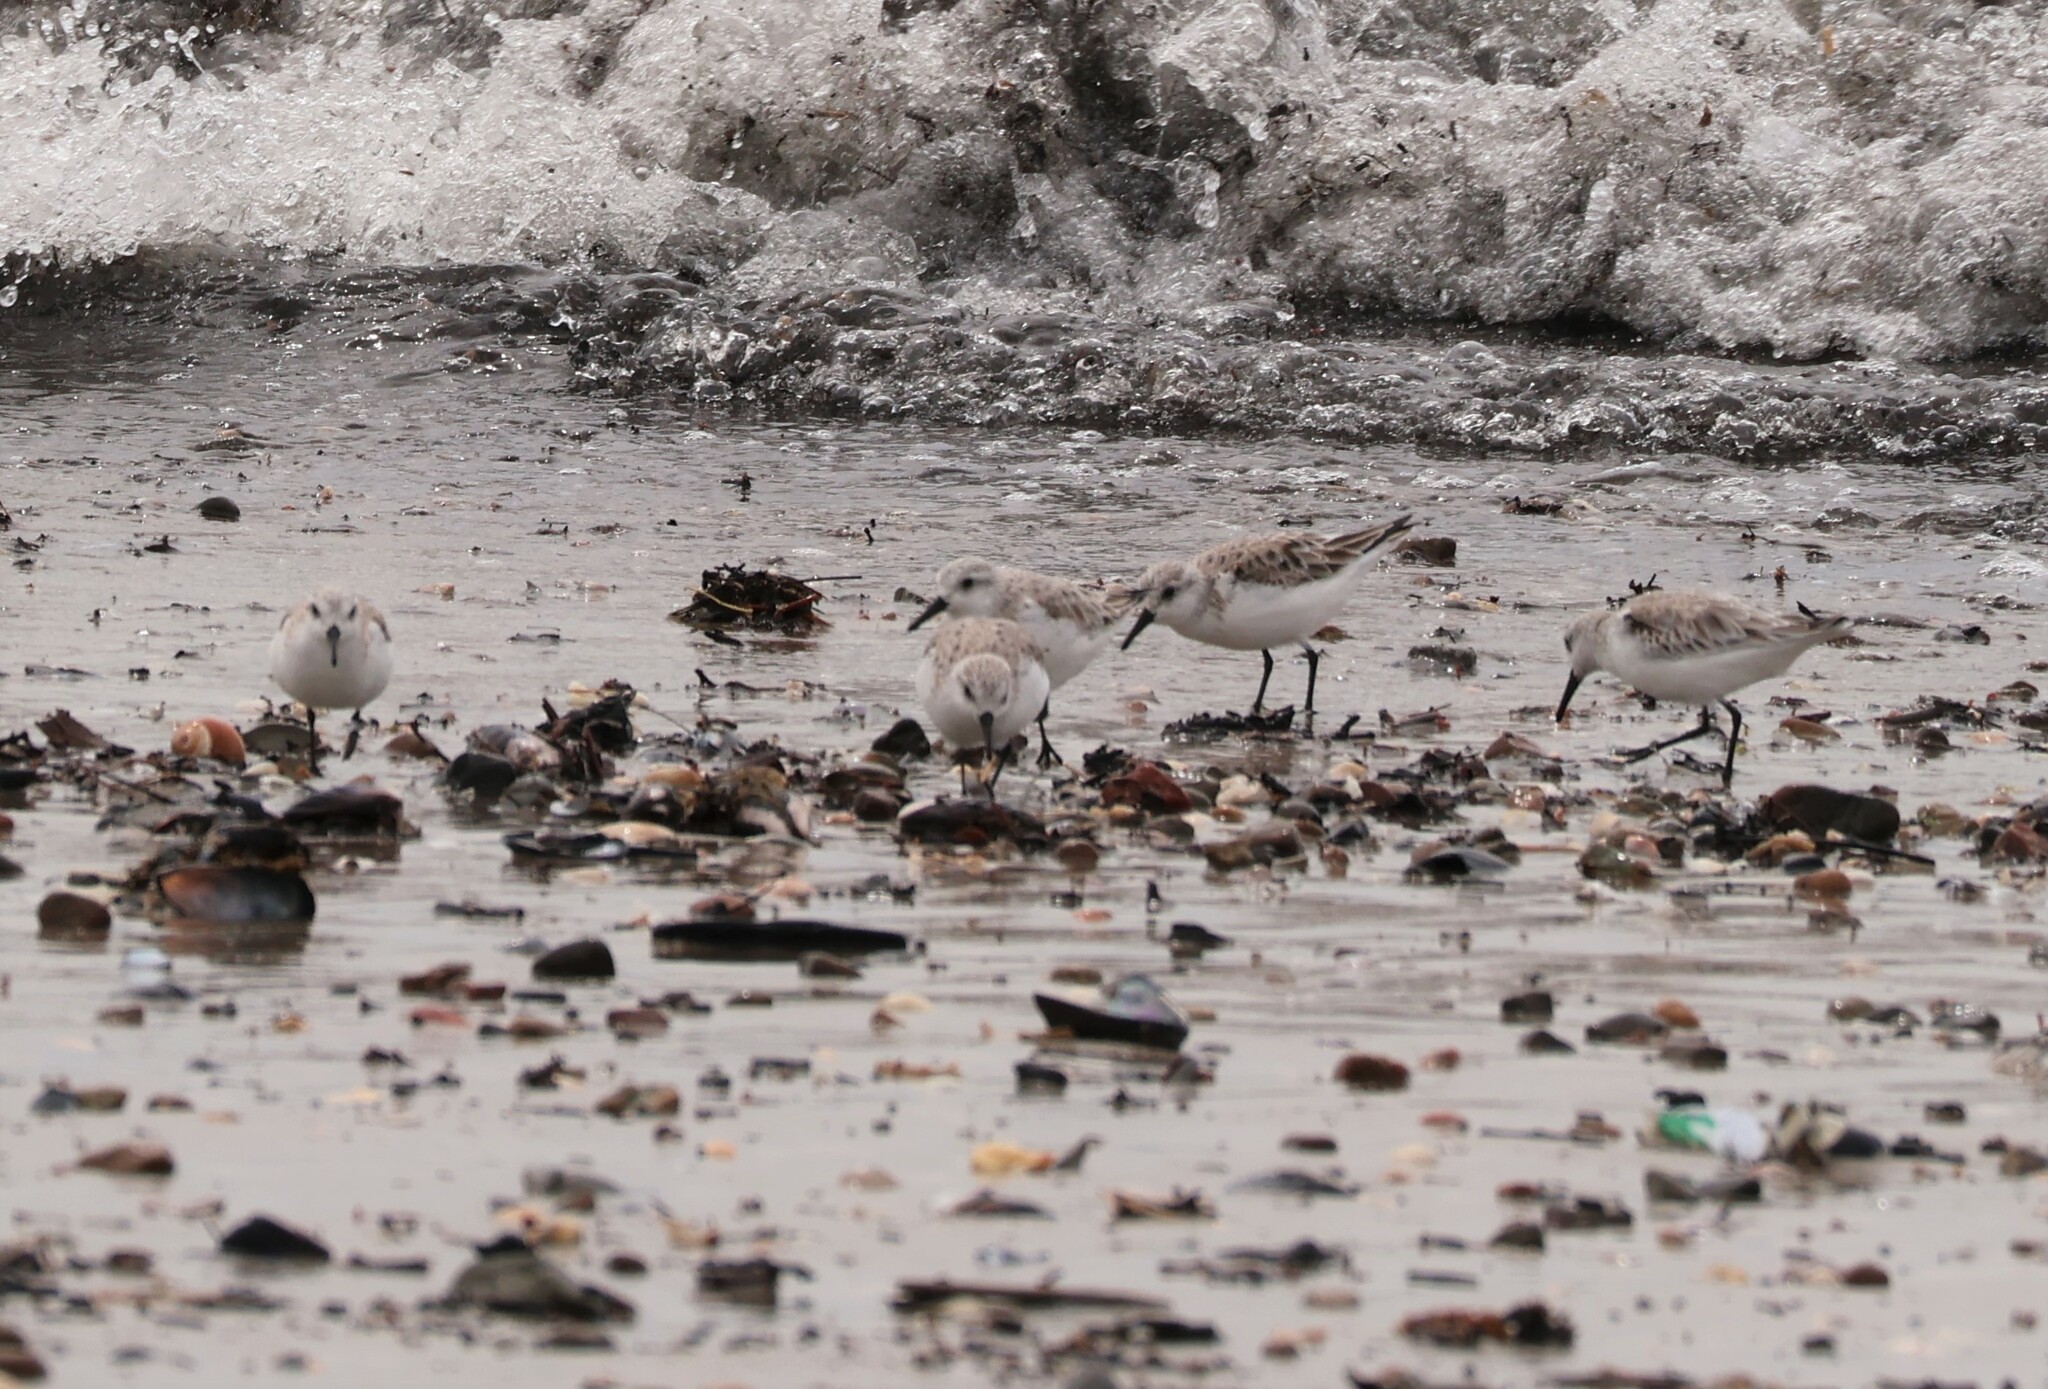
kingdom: Animalia
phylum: Chordata
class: Aves
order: Charadriiformes
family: Scolopacidae
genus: Calidris
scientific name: Calidris alba
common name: Sanderling
